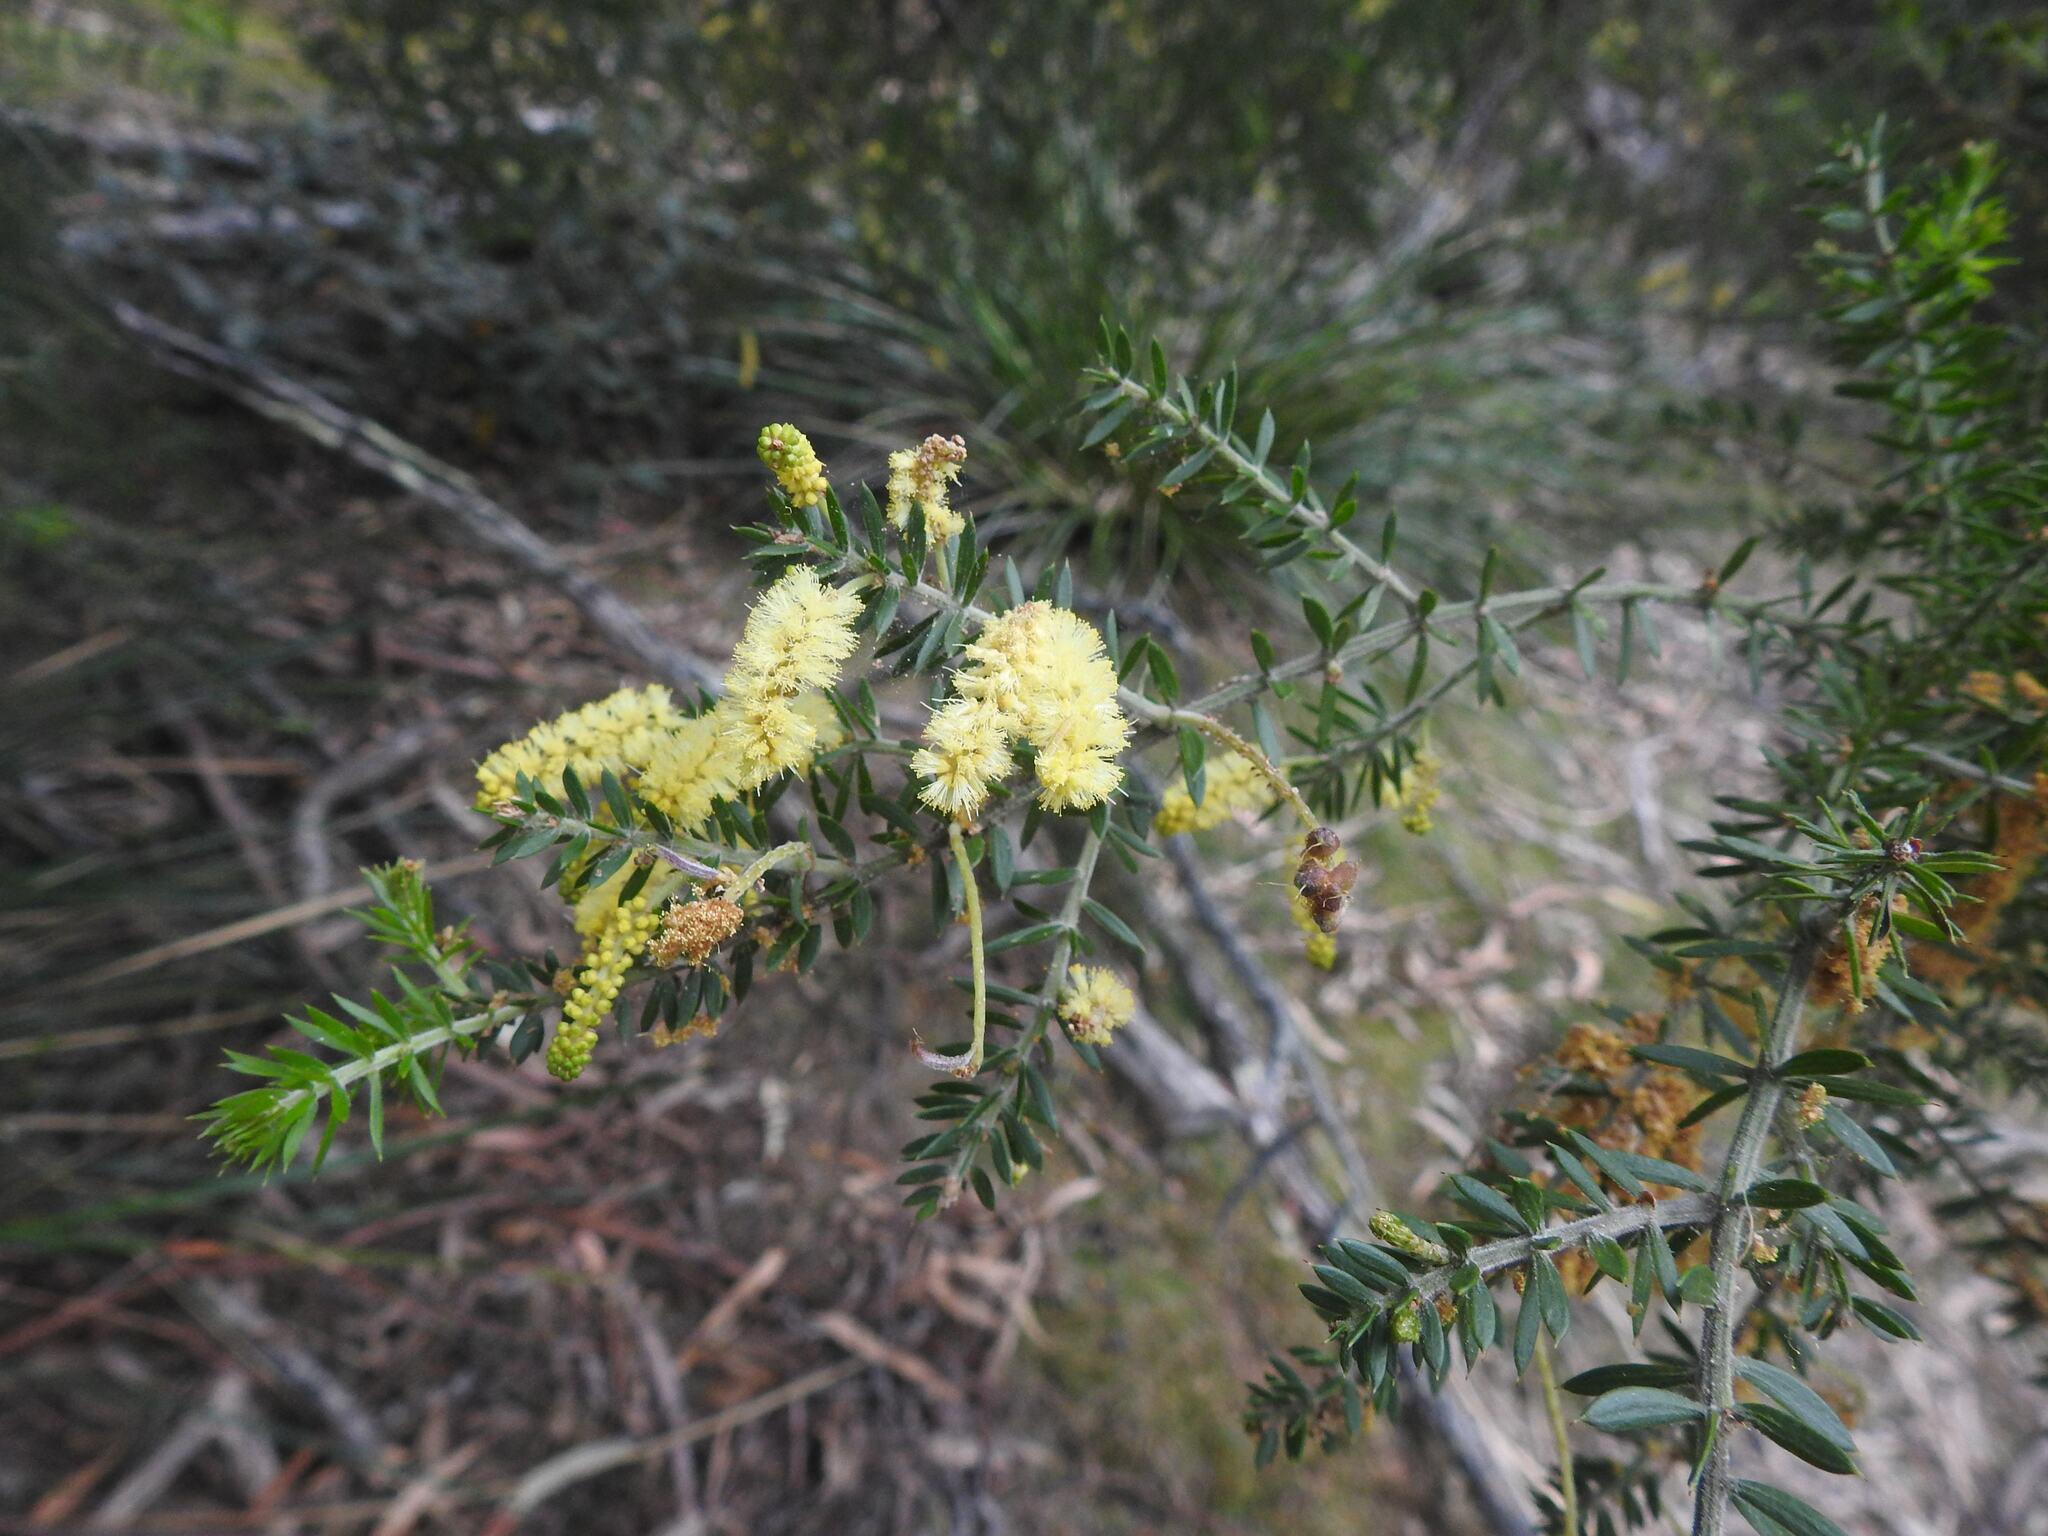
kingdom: Plantae
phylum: Tracheophyta
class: Magnoliopsida
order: Fabales
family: Fabaceae
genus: Acacia
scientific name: Acacia verticillata
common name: Prickly moses
